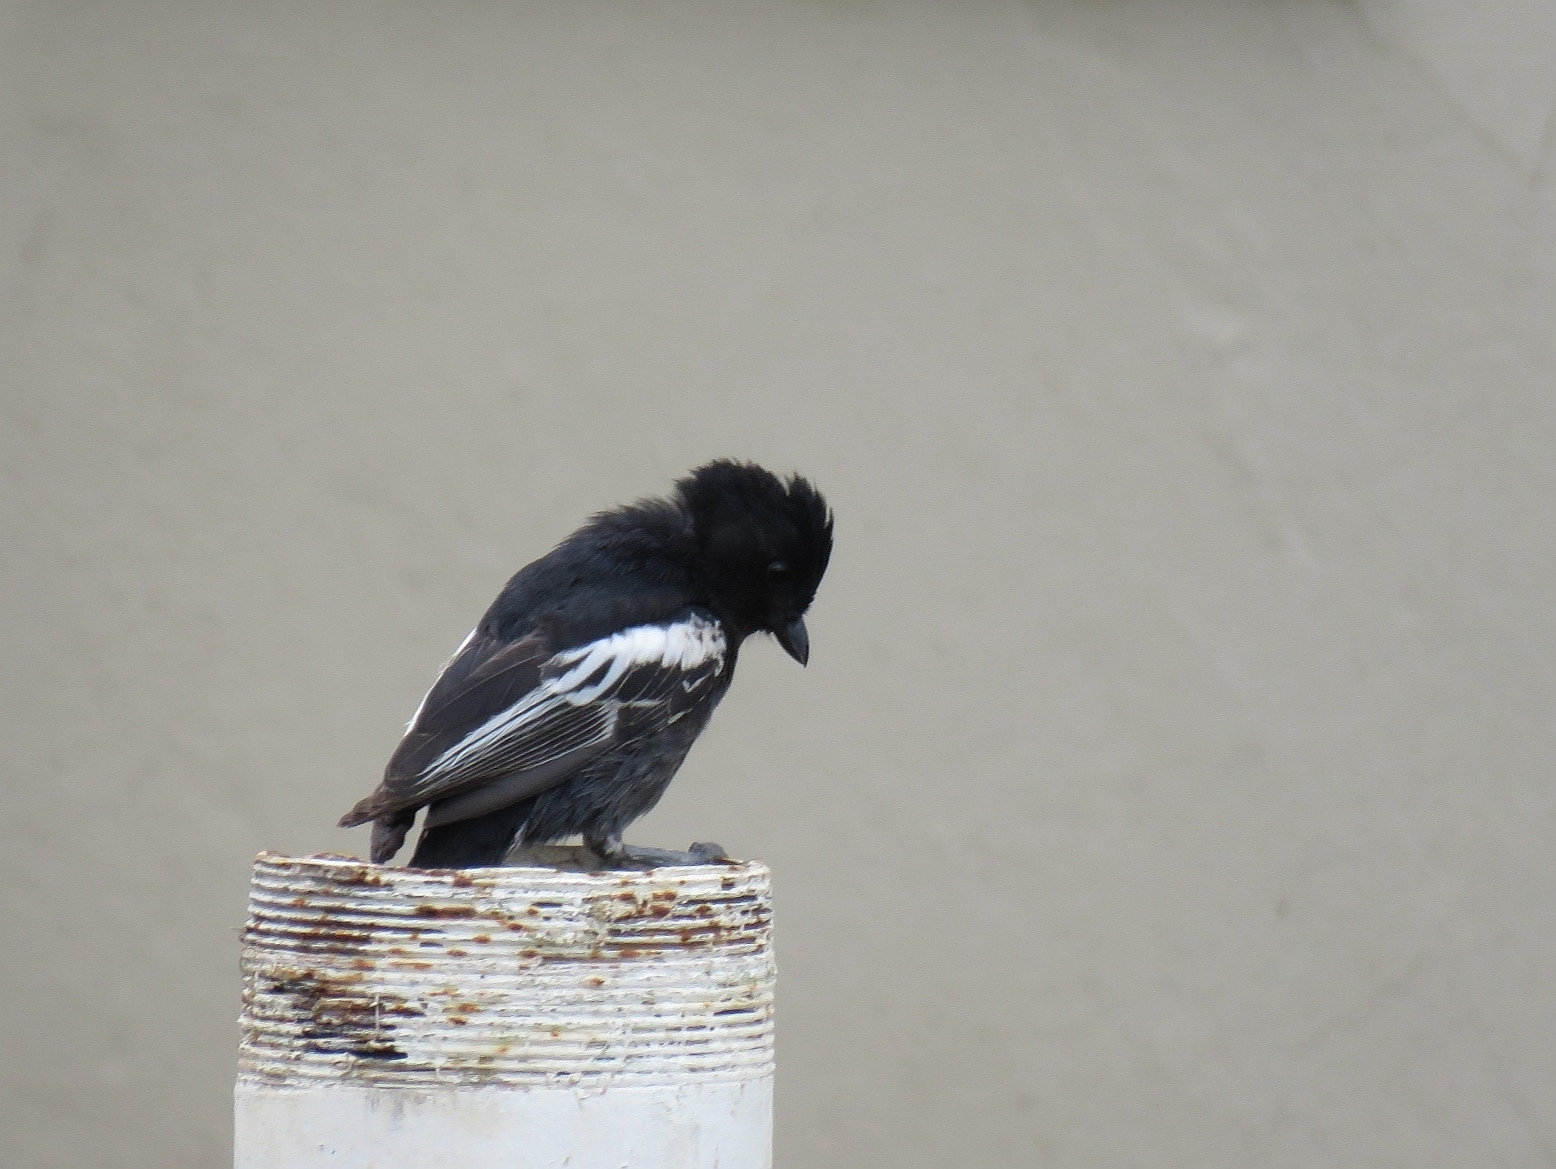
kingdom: Animalia
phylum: Chordata
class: Aves
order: Passeriformes
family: Paridae
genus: Parus
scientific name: Parus niger
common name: Southern black tit
